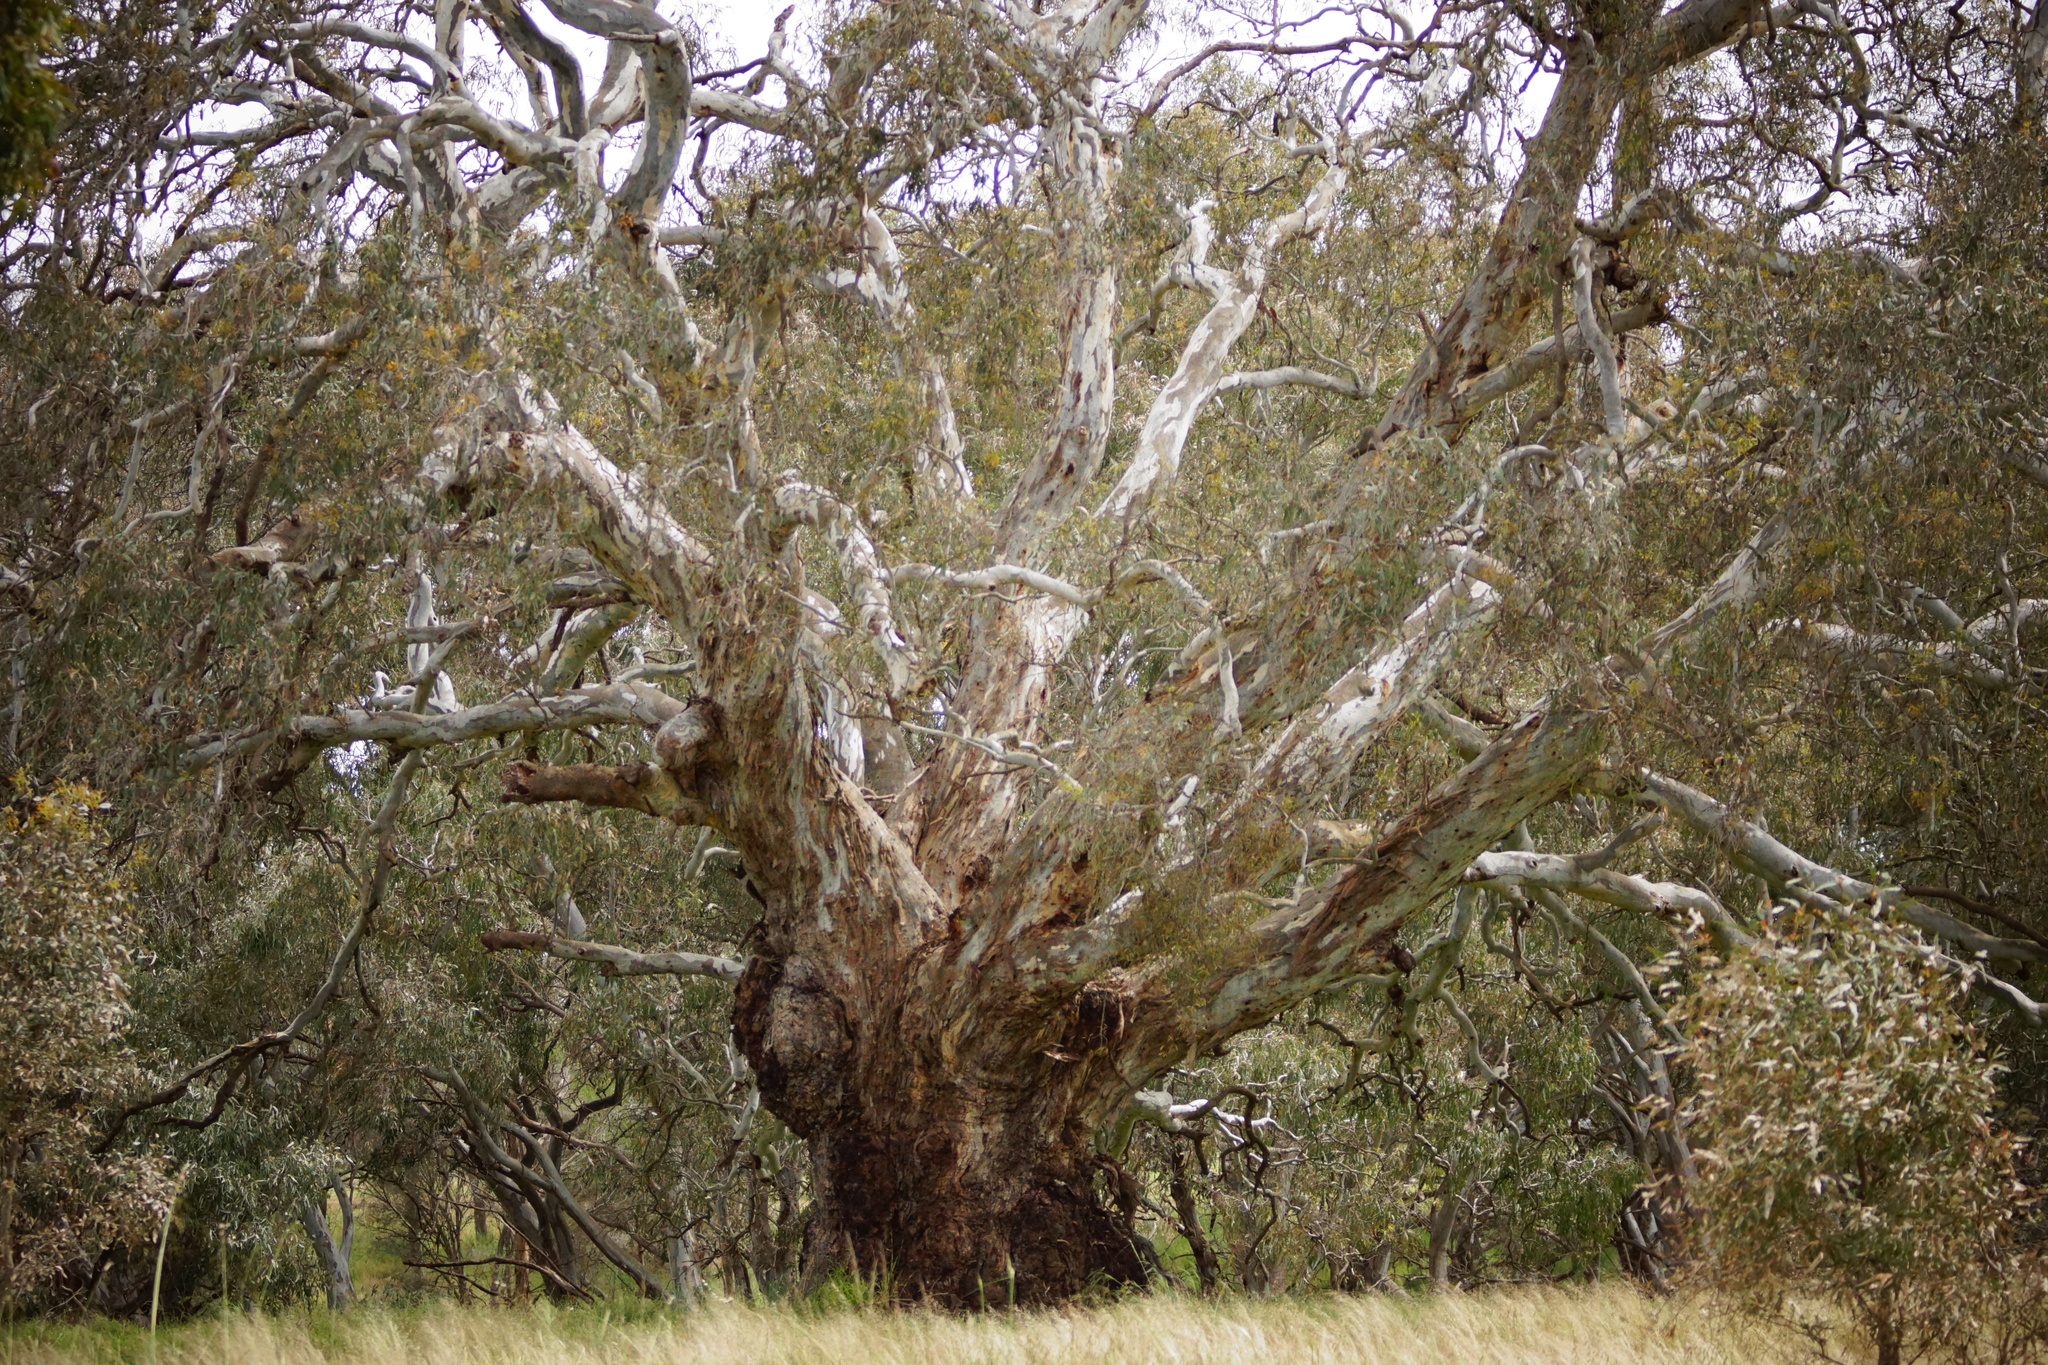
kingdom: Plantae
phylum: Tracheophyta
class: Magnoliopsida
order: Myrtales
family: Myrtaceae
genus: Eucalyptus
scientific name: Eucalyptus camaldulensis
